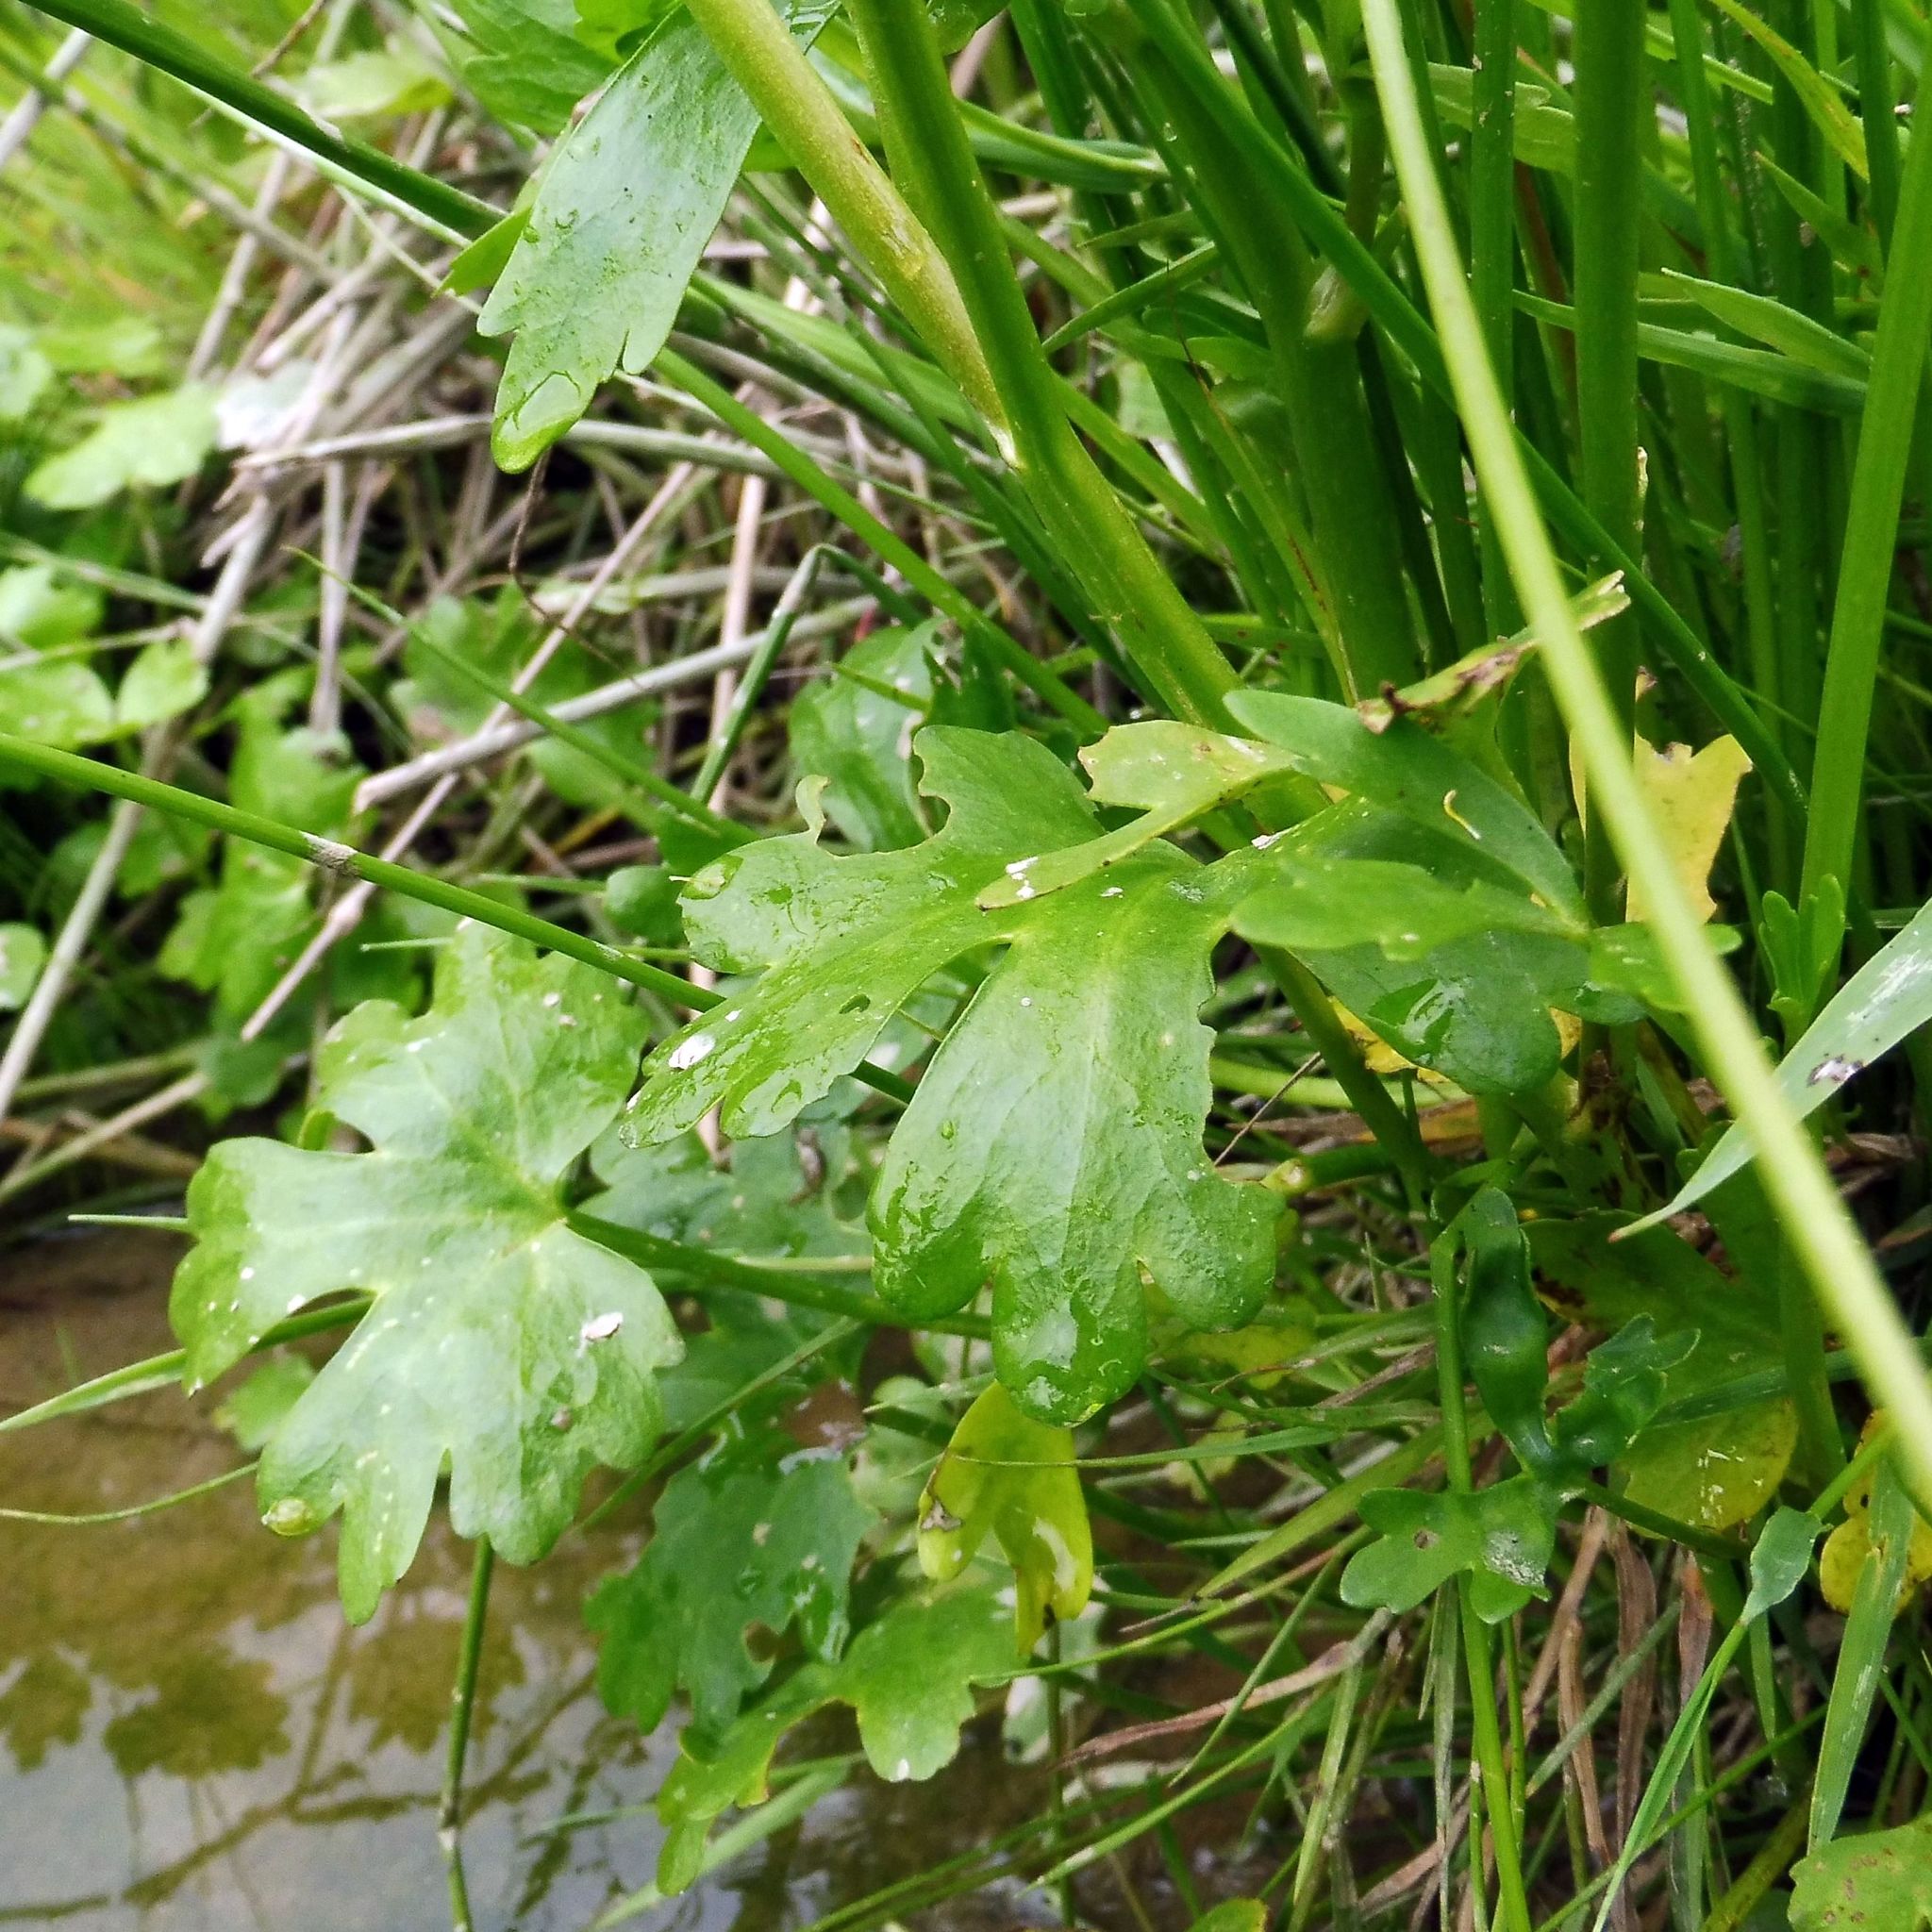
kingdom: Plantae
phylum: Tracheophyta
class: Magnoliopsida
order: Ranunculales
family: Ranunculaceae
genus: Ranunculus
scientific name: Ranunculus sceleratus
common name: Celery-leaved buttercup
